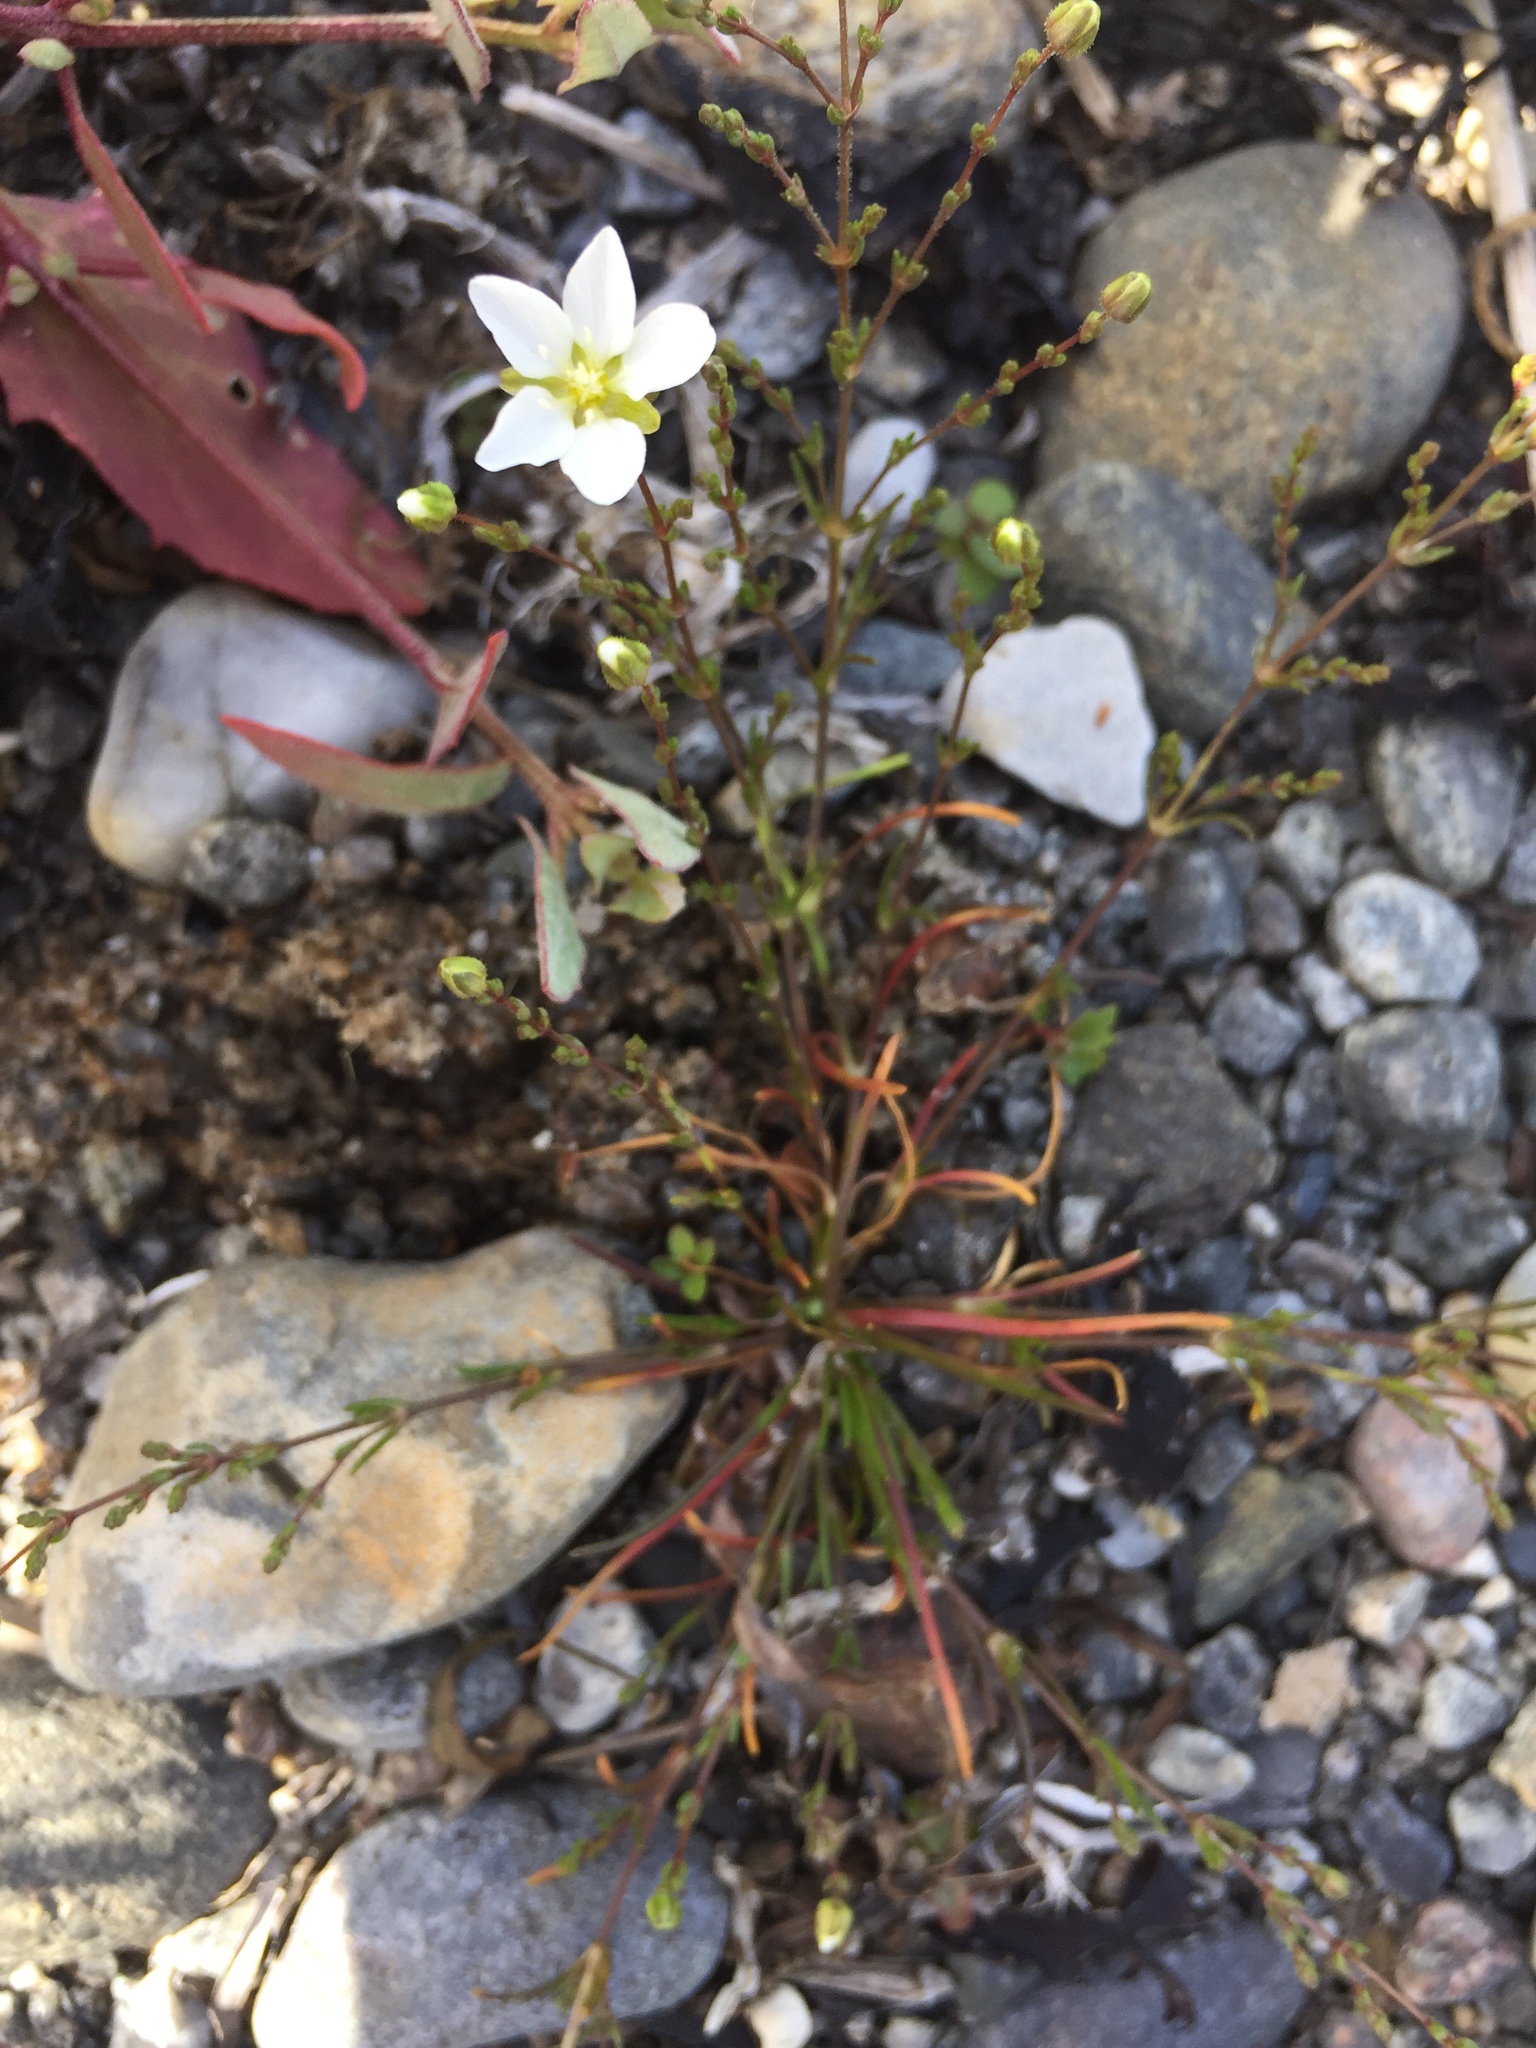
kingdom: Plantae
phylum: Tracheophyta
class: Magnoliopsida
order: Caryophyllales
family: Caryophyllaceae
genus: Sagina
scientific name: Sagina nodosa
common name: Knotted pearlwort
